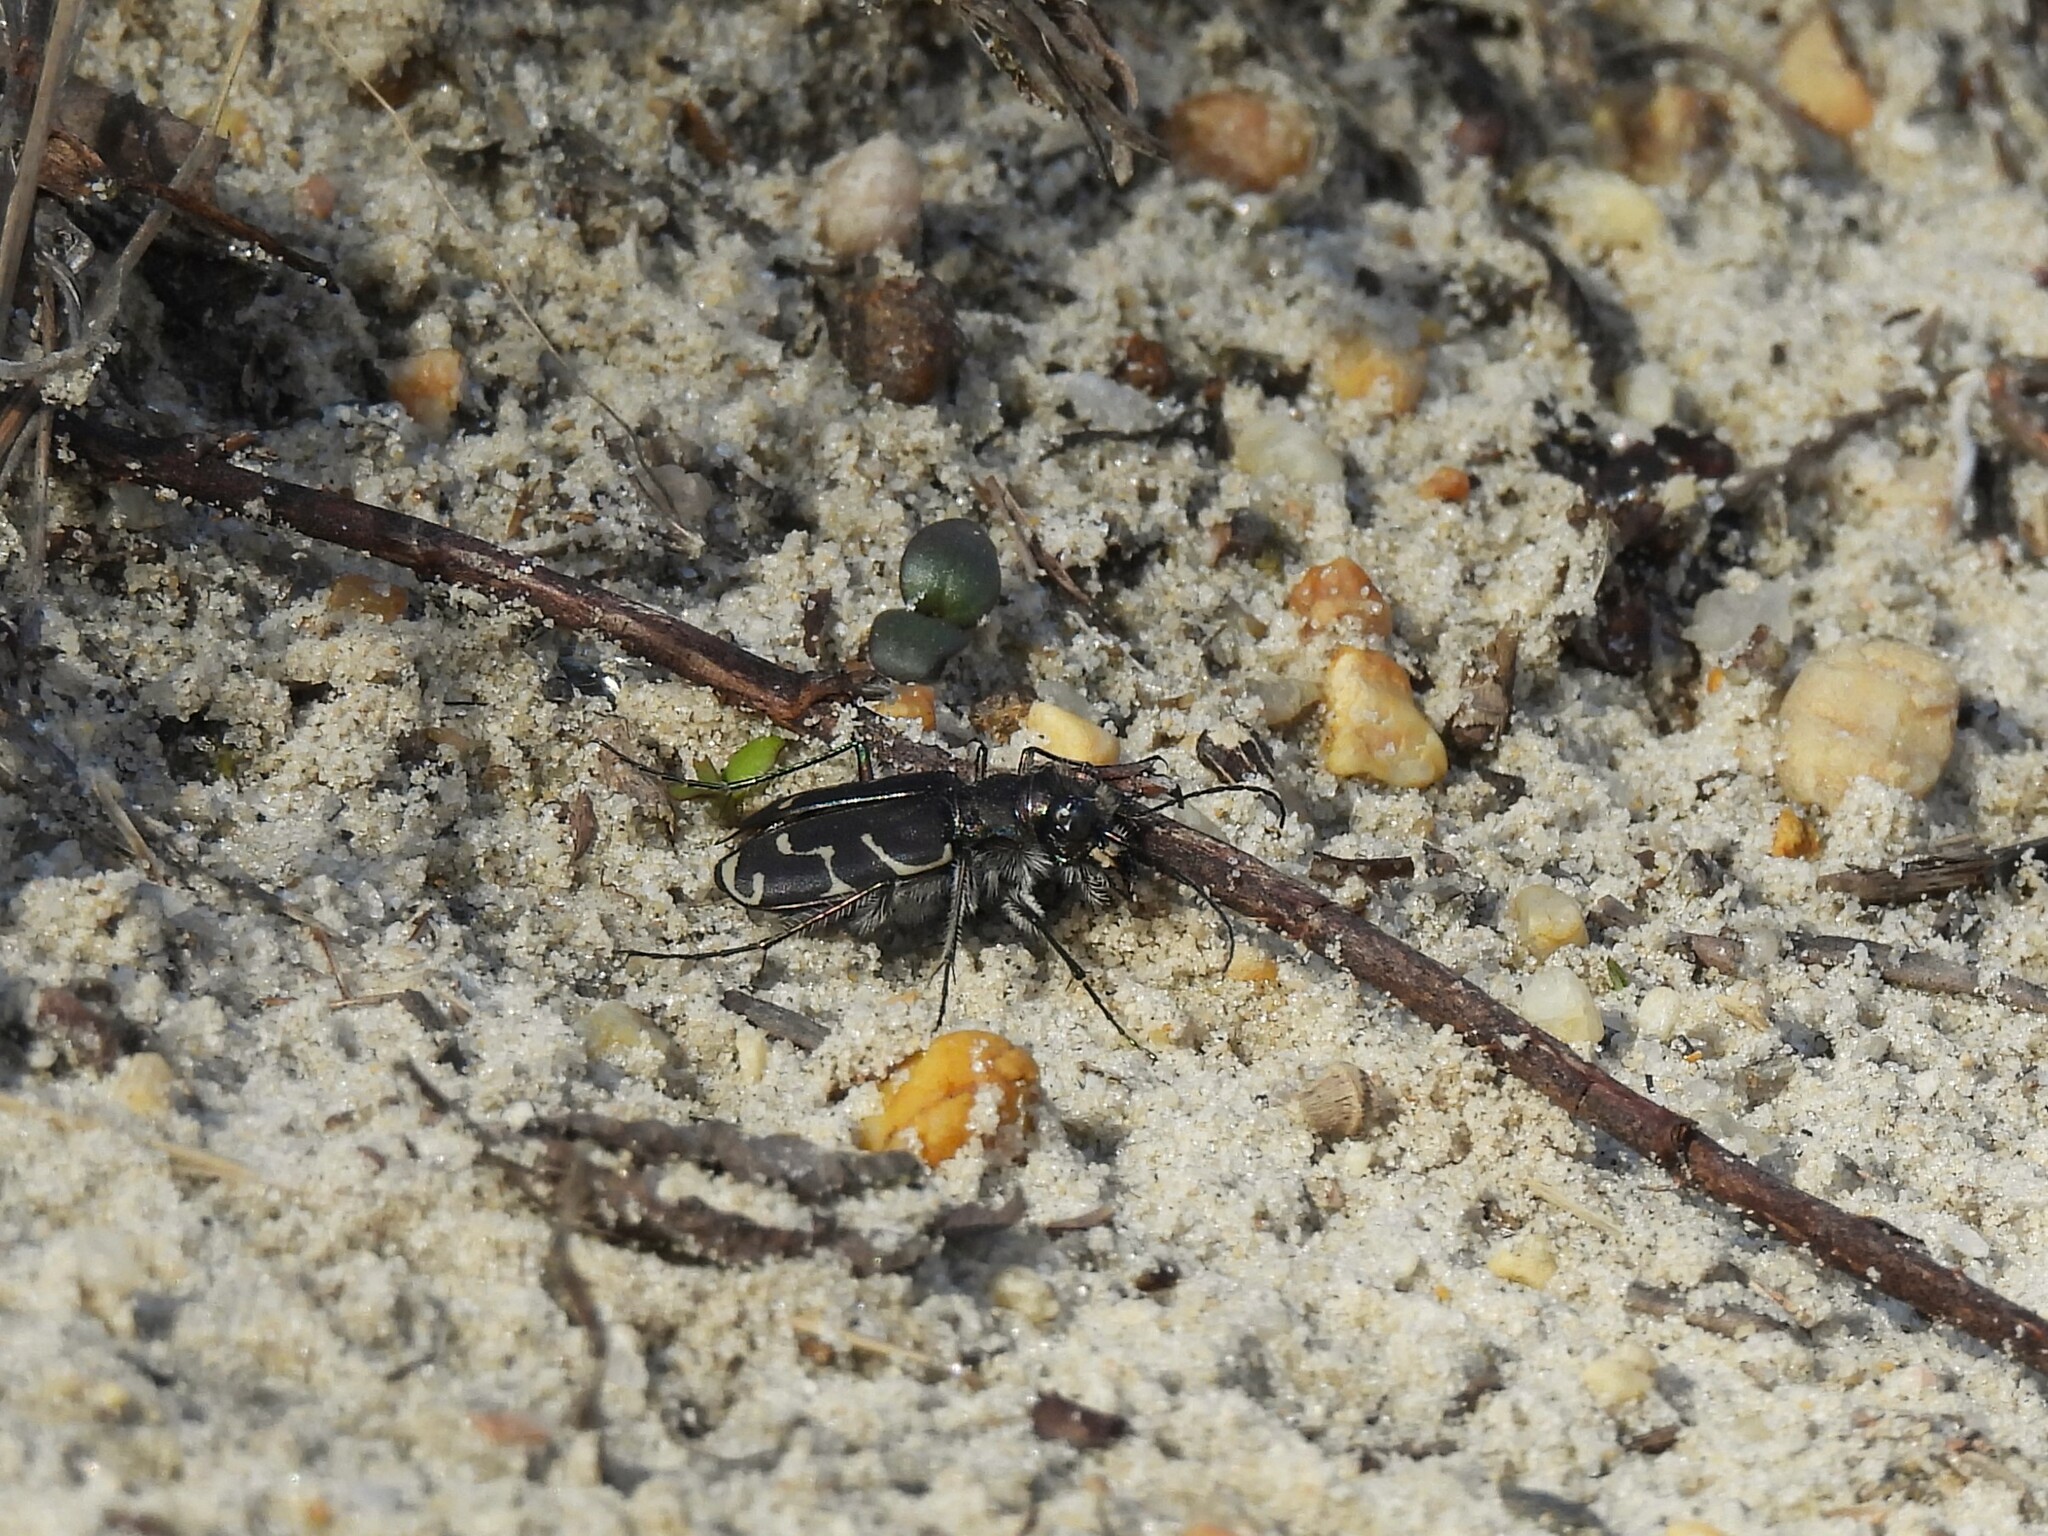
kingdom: Animalia
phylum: Arthropoda
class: Insecta
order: Coleoptera
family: Carabidae
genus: Cicindela
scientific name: Cicindela tranquebarica
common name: Oblique-lined tiger beetle
